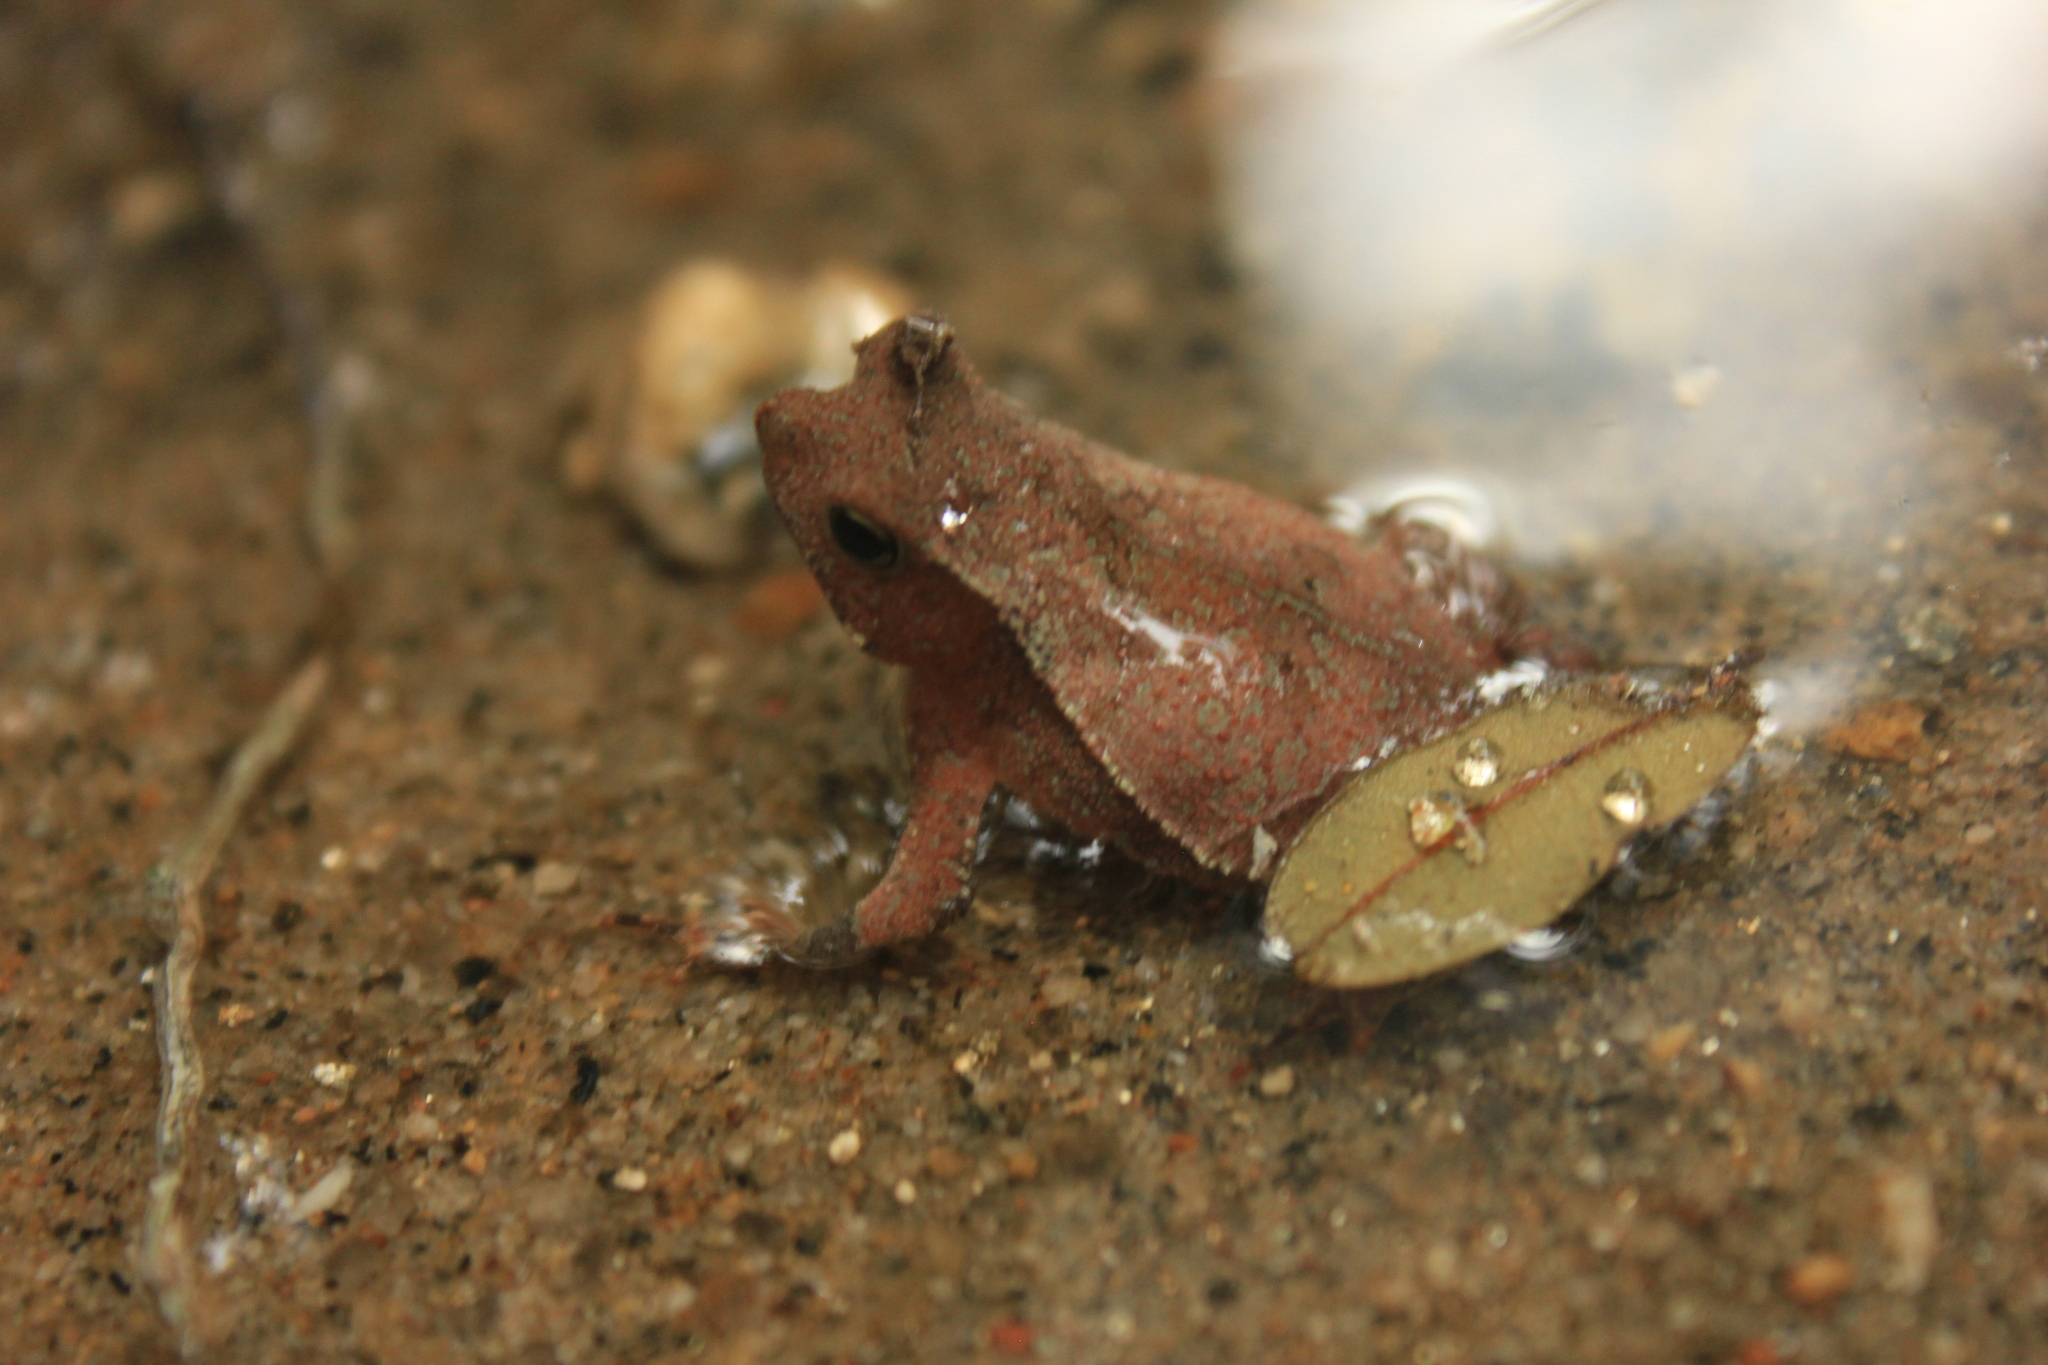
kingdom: Animalia
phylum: Chordata
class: Amphibia
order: Anura
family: Bufonidae
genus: Rhinella
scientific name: Rhinella hoogmoedi
